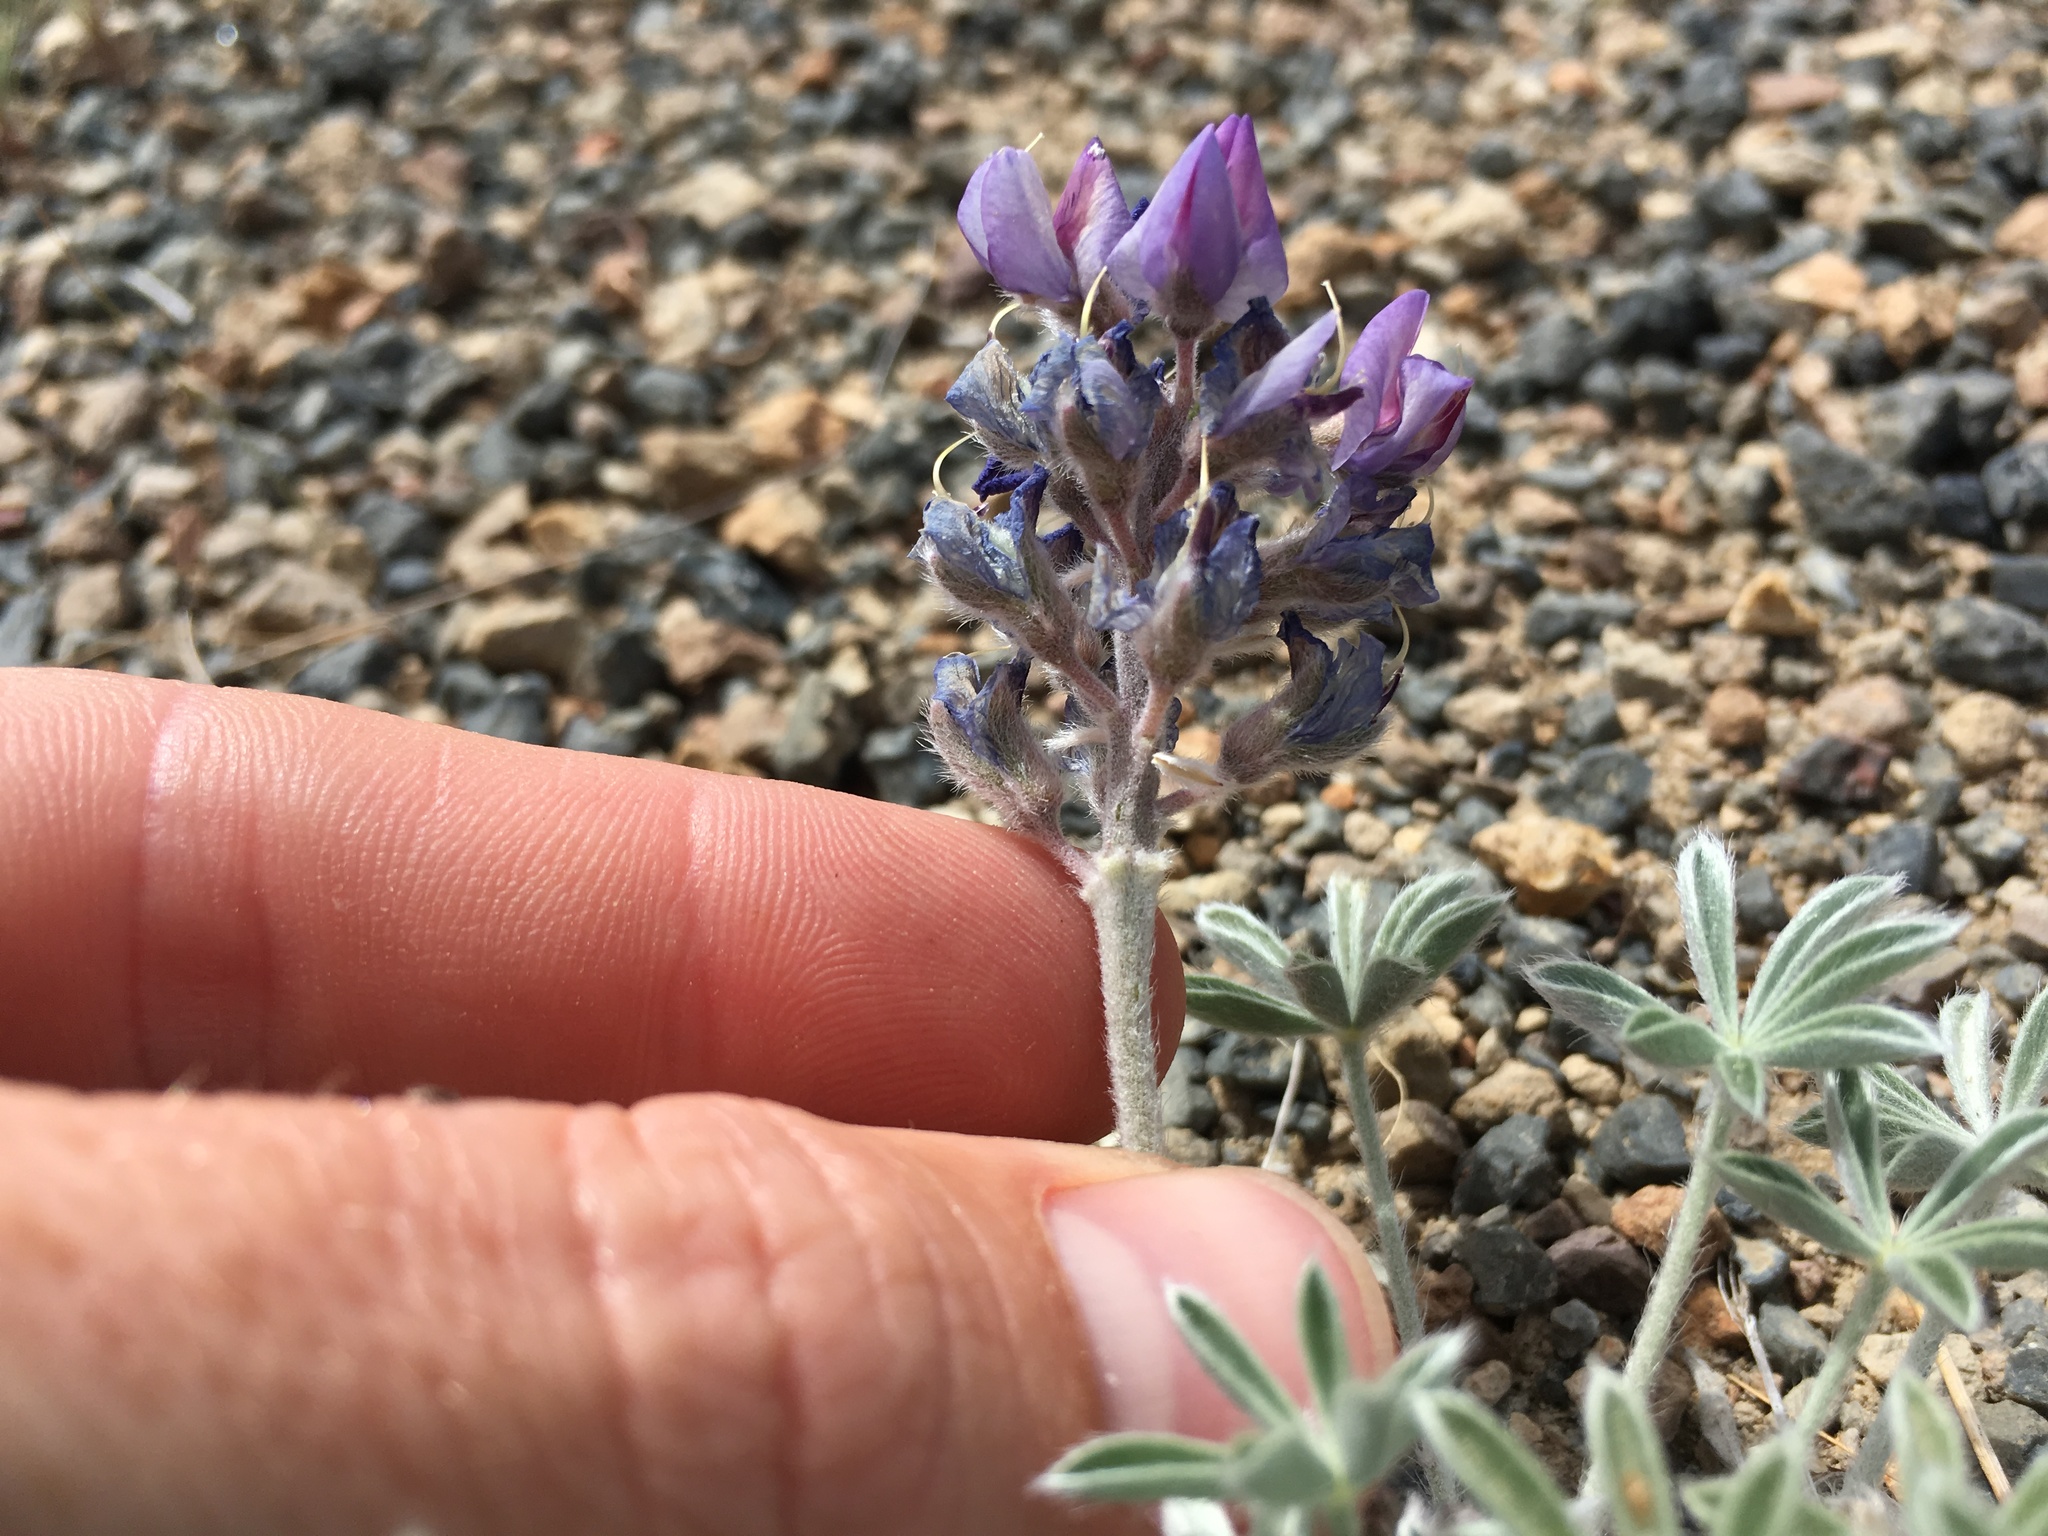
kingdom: Plantae
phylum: Tracheophyta
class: Magnoliopsida
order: Fabales
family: Fabaceae
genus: Lupinus
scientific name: Lupinus duranii
